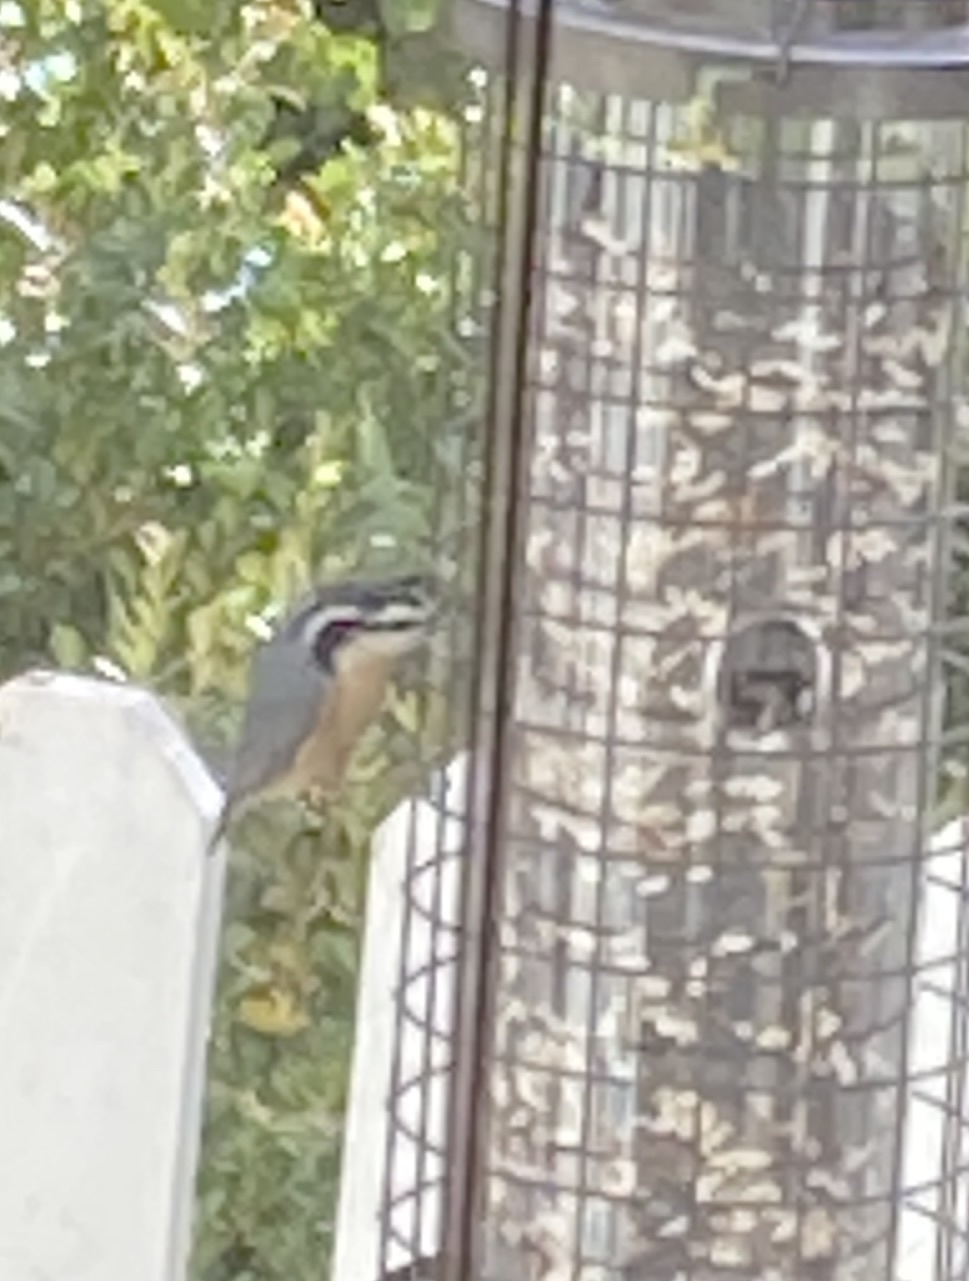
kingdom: Animalia
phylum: Chordata
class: Aves
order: Passeriformes
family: Sittidae
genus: Sitta
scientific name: Sitta canadensis
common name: Red-breasted nuthatch
